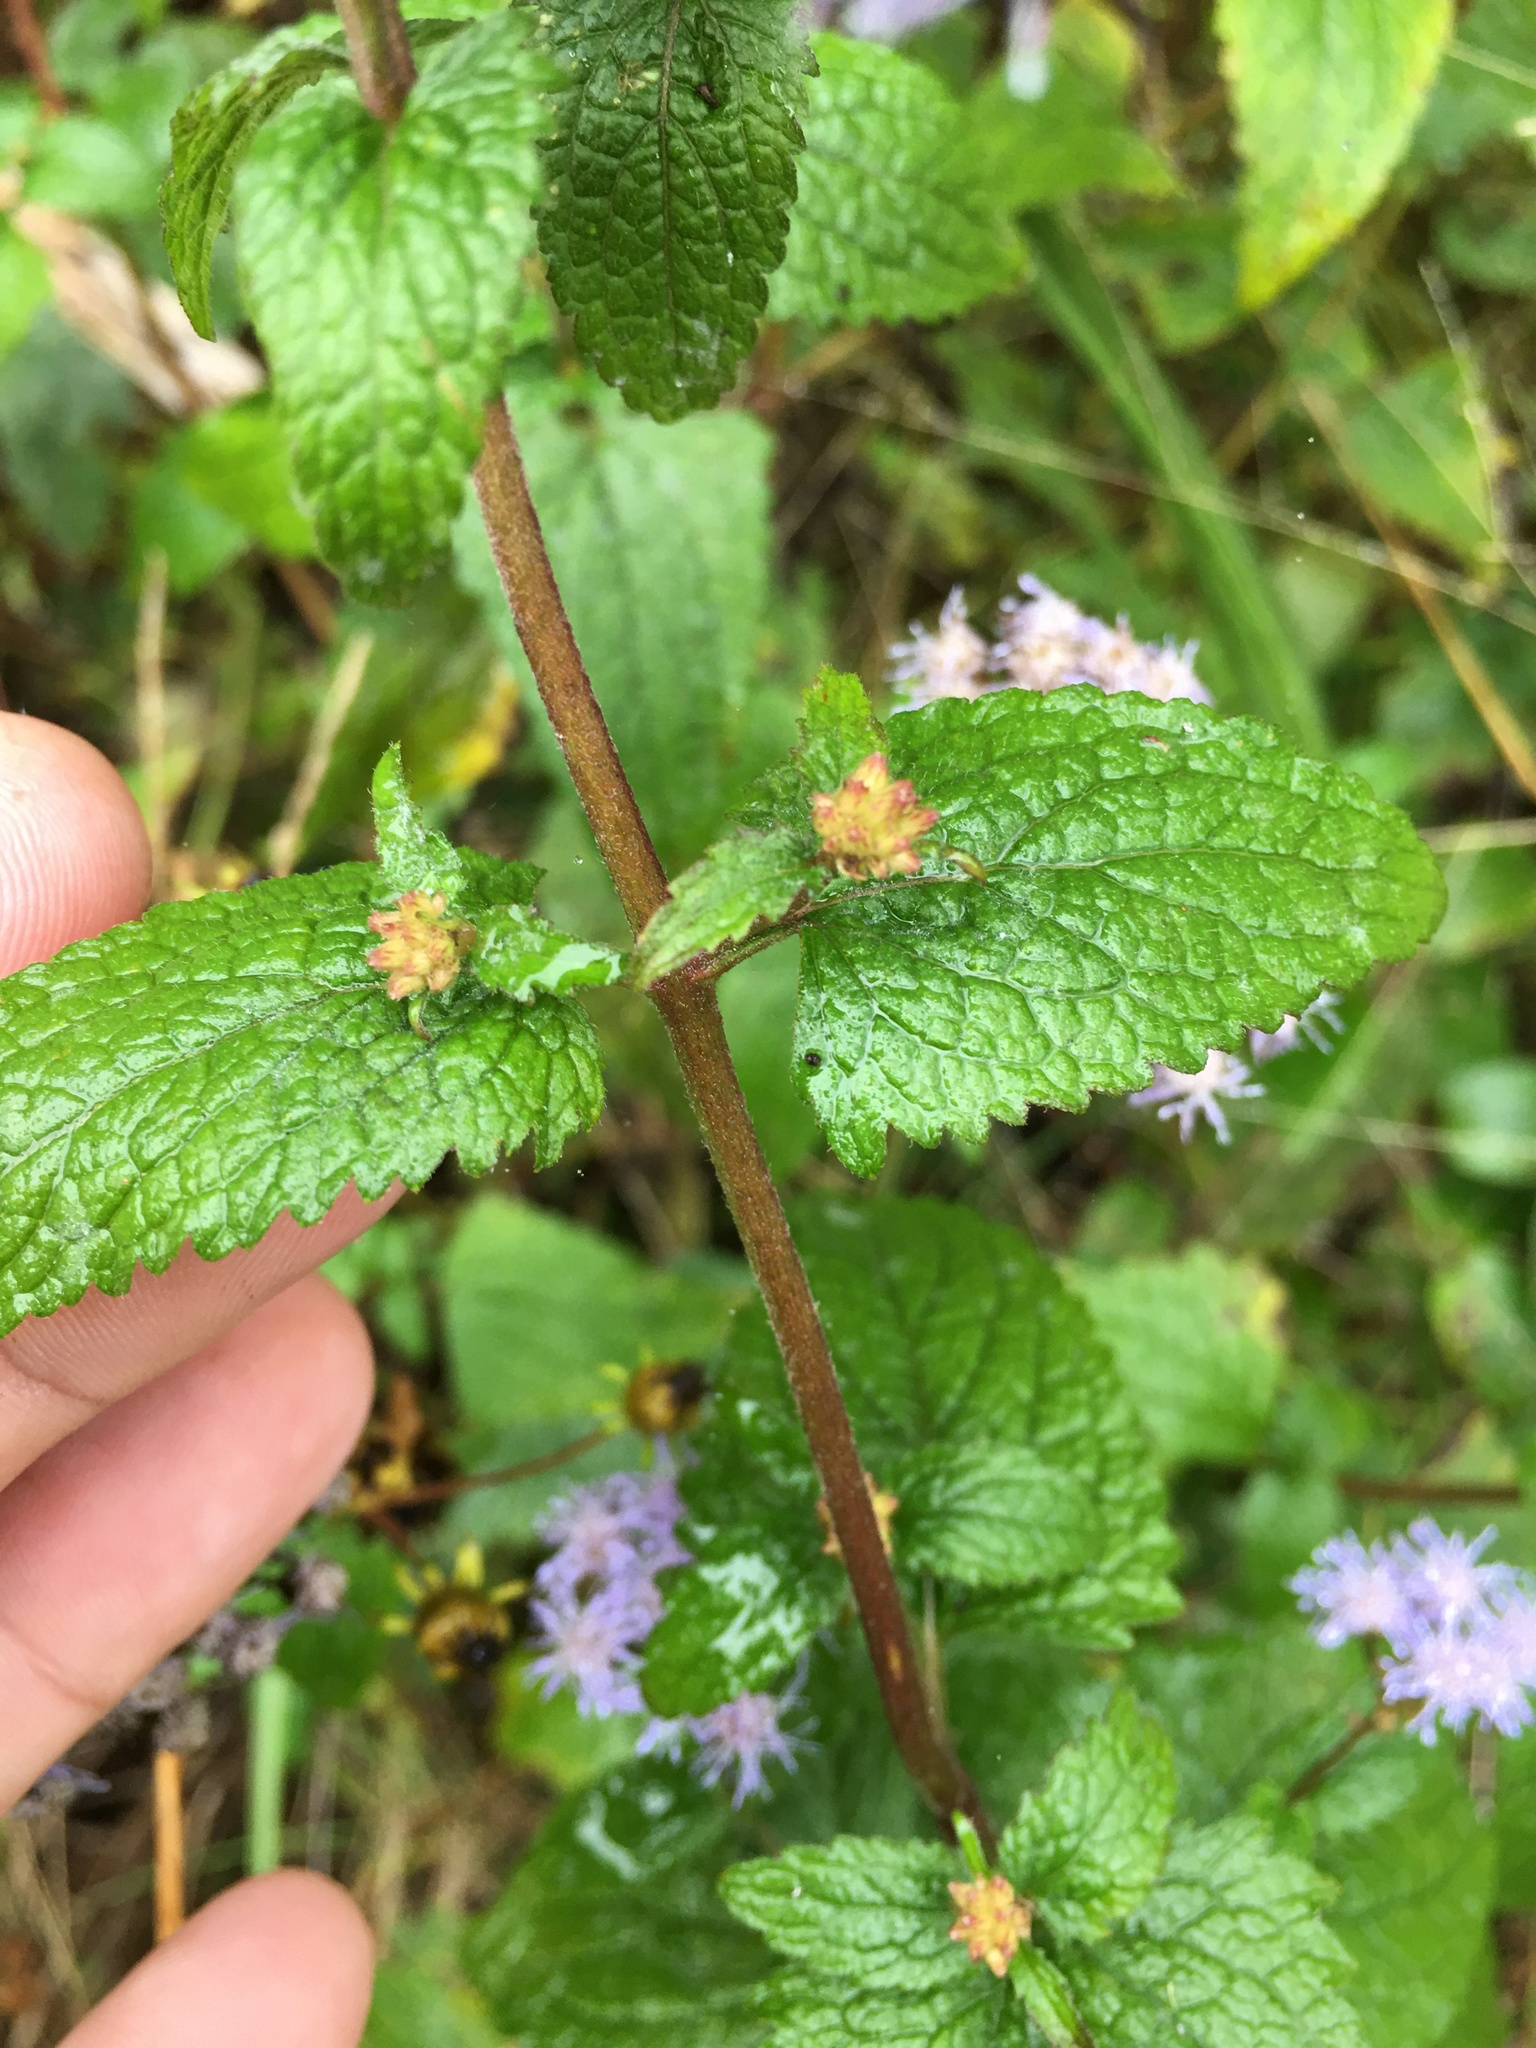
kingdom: Plantae
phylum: Tracheophyta
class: Magnoliopsida
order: Asterales
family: Asteraceae
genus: Conoclinium
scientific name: Conoclinium coelestinum
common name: Blue mistflower
